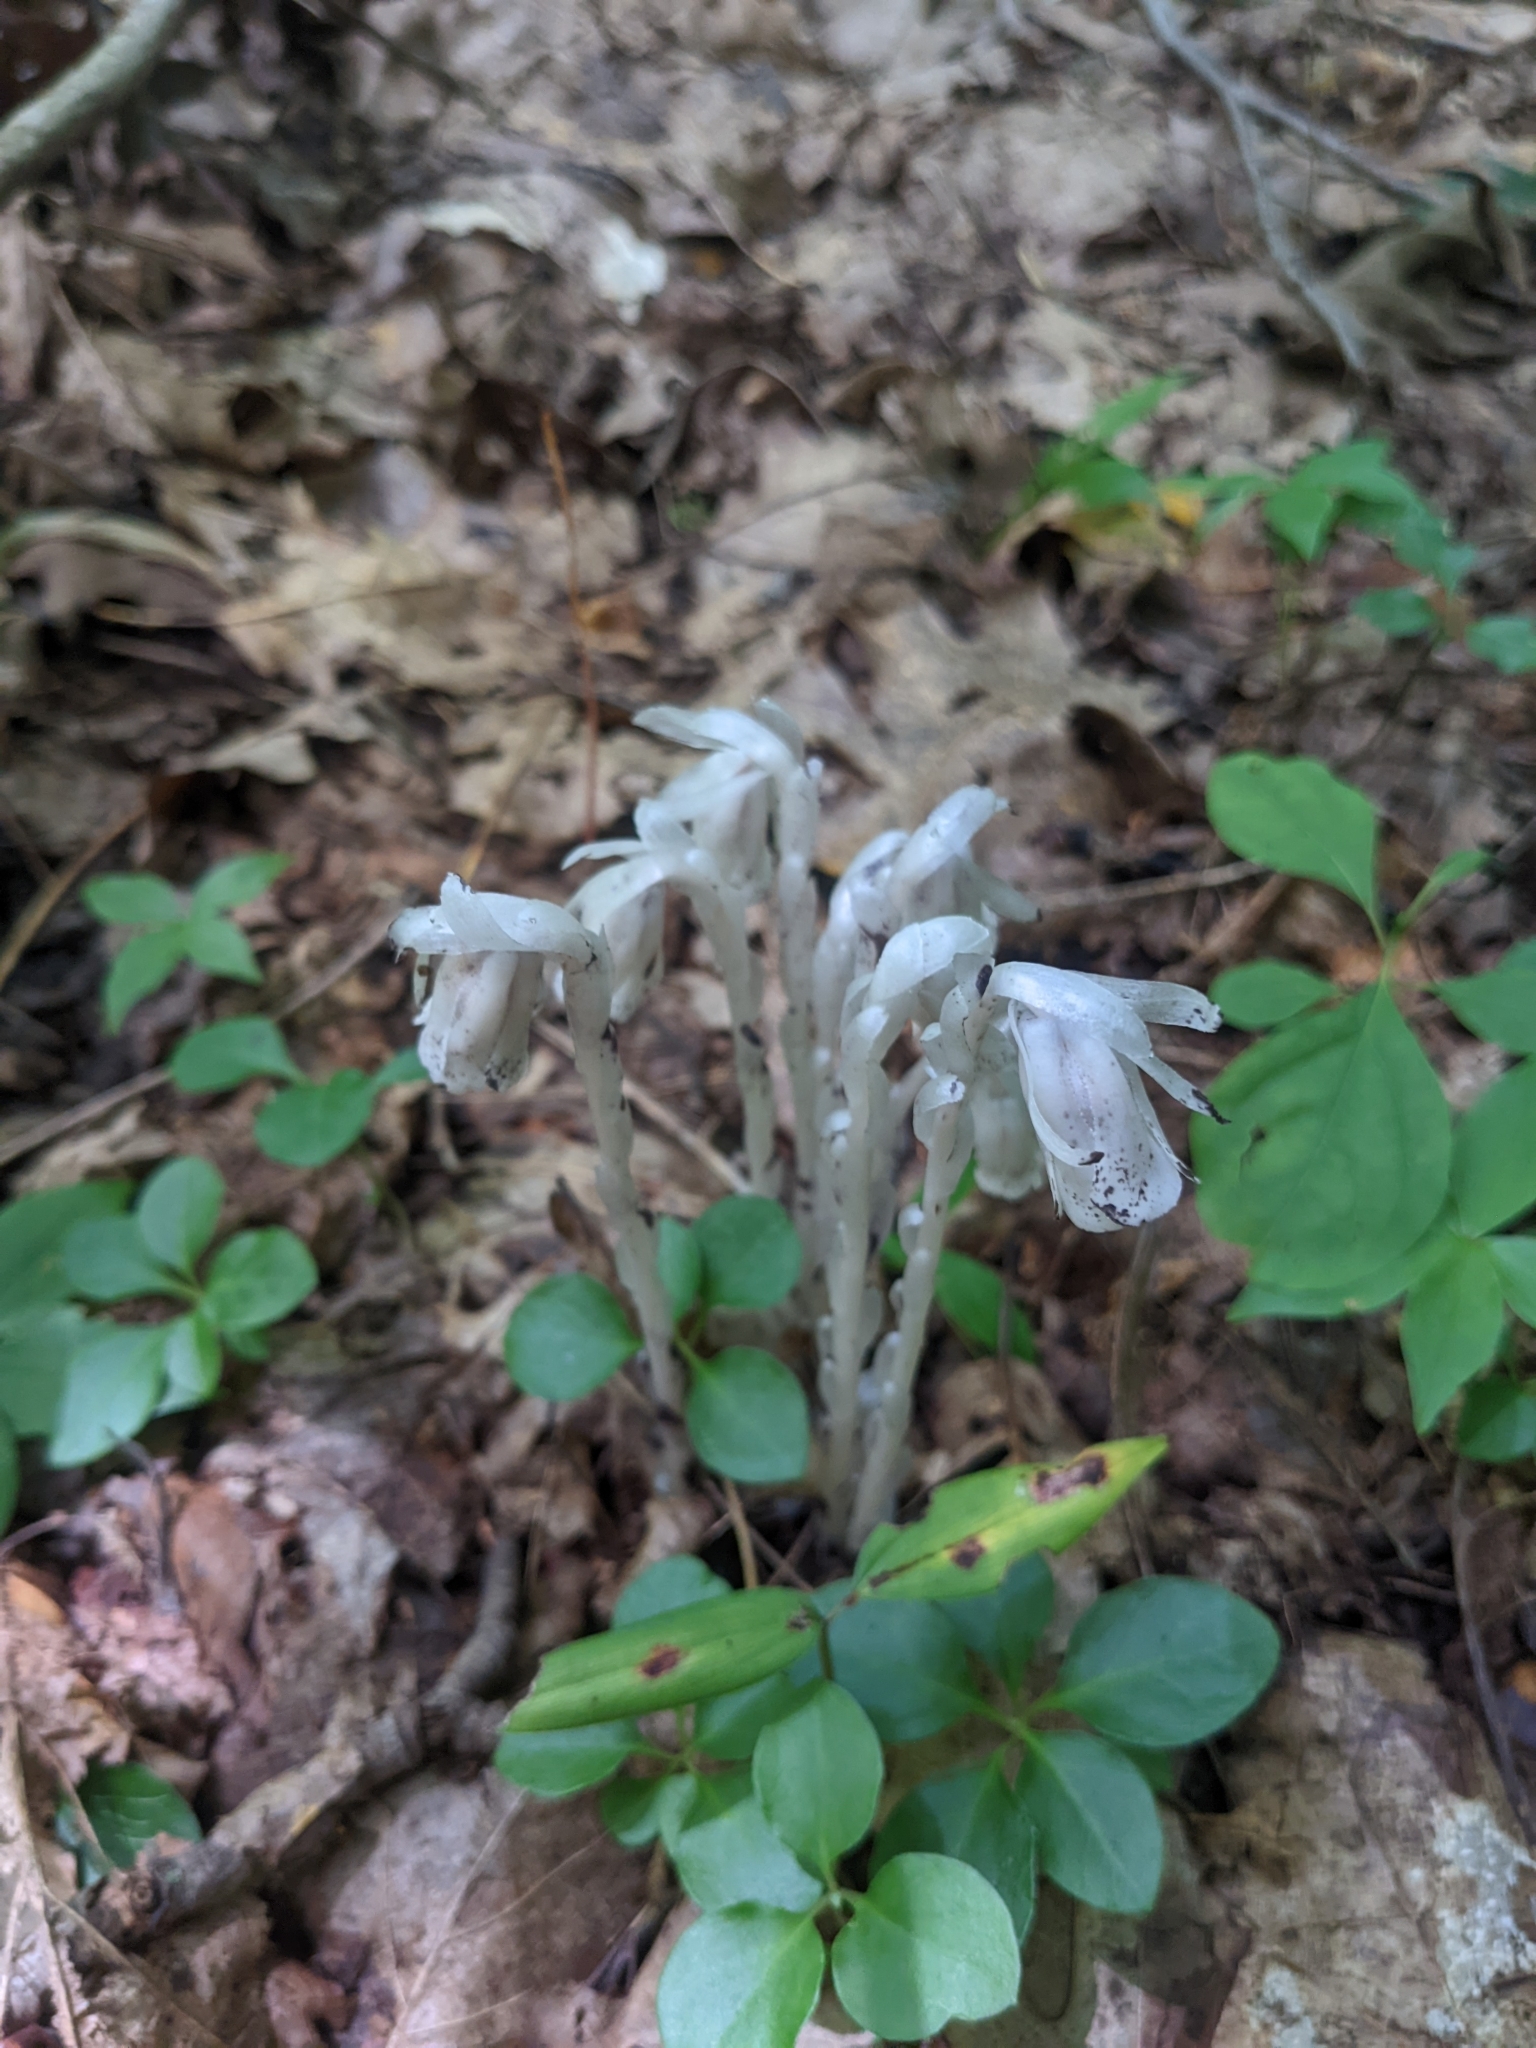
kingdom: Plantae
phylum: Tracheophyta
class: Magnoliopsida
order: Ericales
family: Ericaceae
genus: Monotropa
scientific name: Monotropa uniflora
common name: Convulsion root
